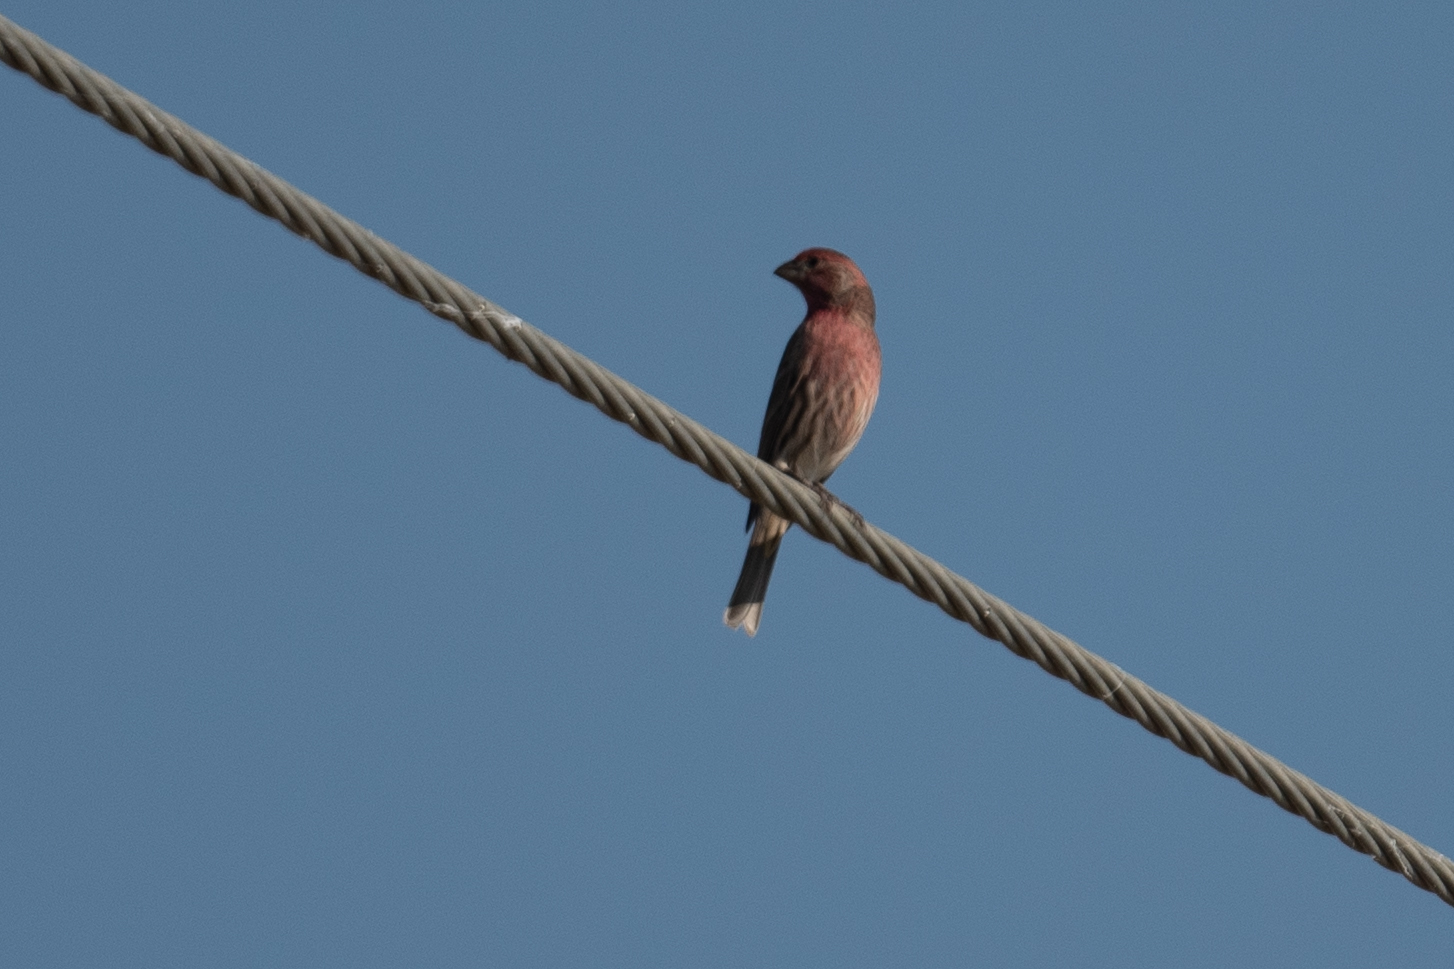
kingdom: Animalia
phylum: Chordata
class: Aves
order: Passeriformes
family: Fringillidae
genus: Haemorhous
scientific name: Haemorhous mexicanus
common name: House finch
